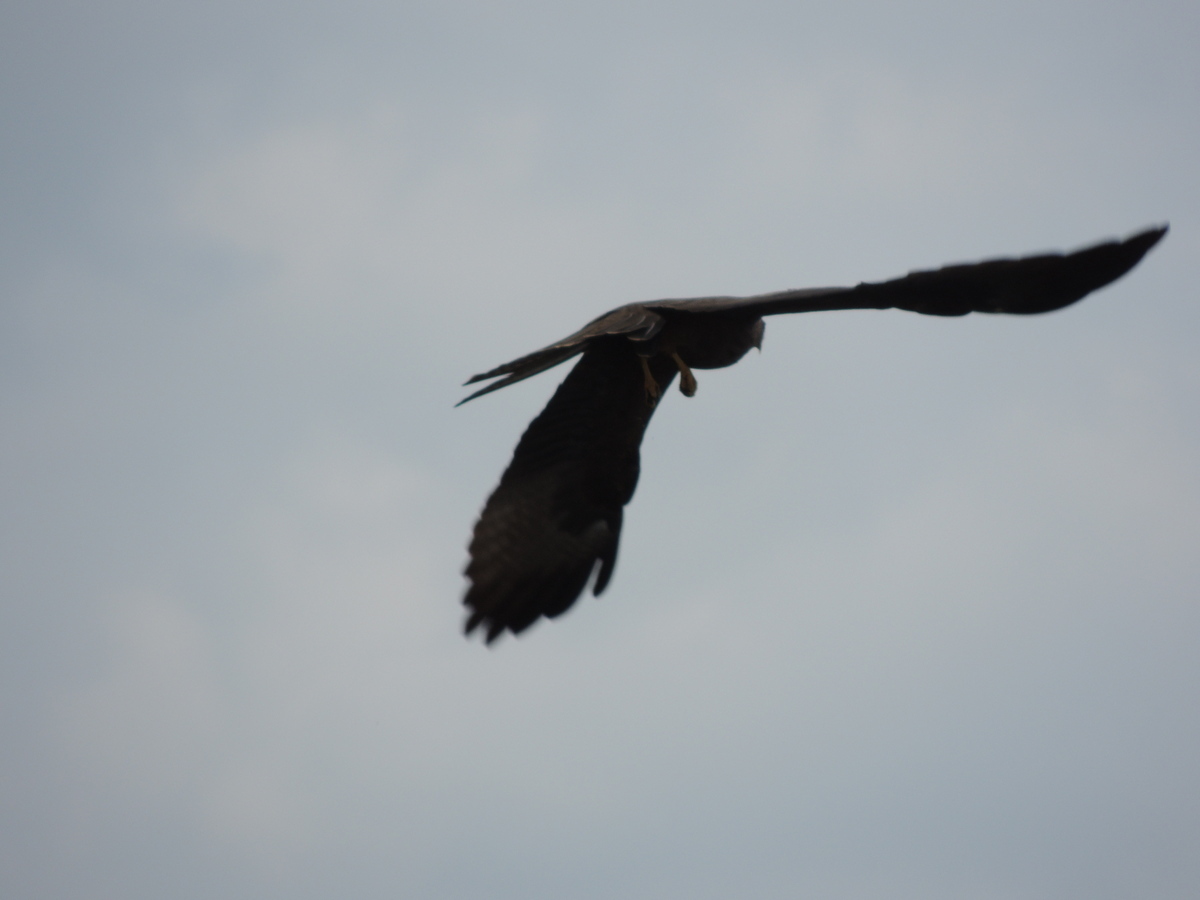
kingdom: Animalia
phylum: Chordata
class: Aves
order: Accipitriformes
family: Accipitridae
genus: Milvus
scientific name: Milvus migrans
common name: Black kite
